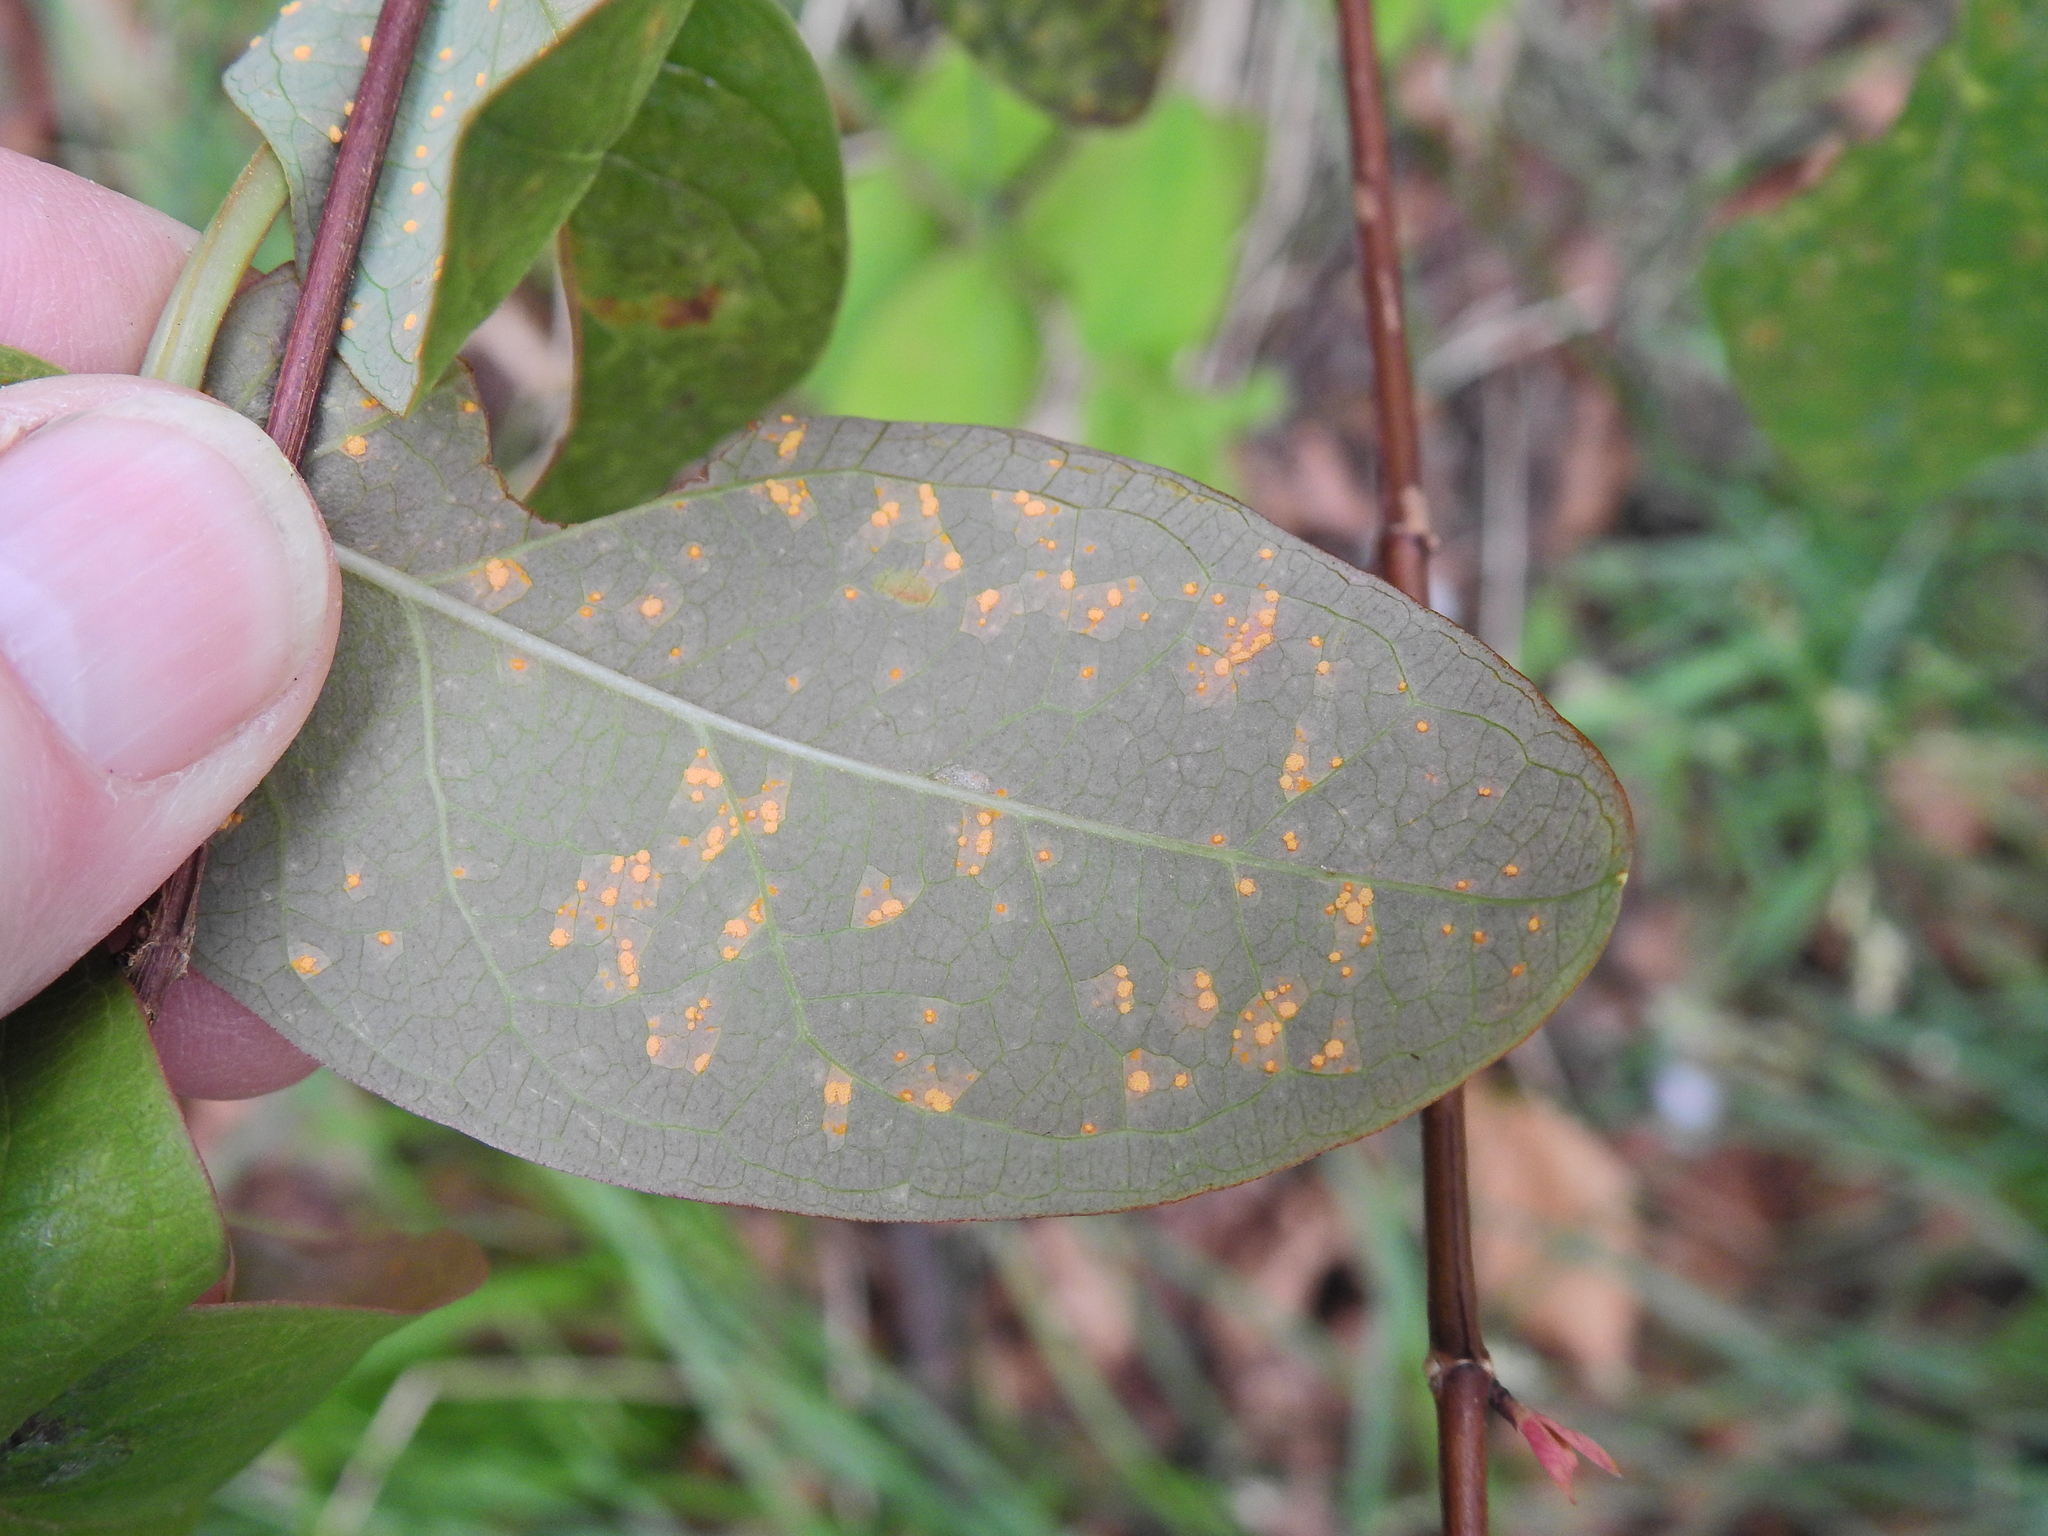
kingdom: Fungi
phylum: Basidiomycota
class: Pucciniomycetes
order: Pucciniales
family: Melampsoraceae
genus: Melampsora
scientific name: Melampsora
